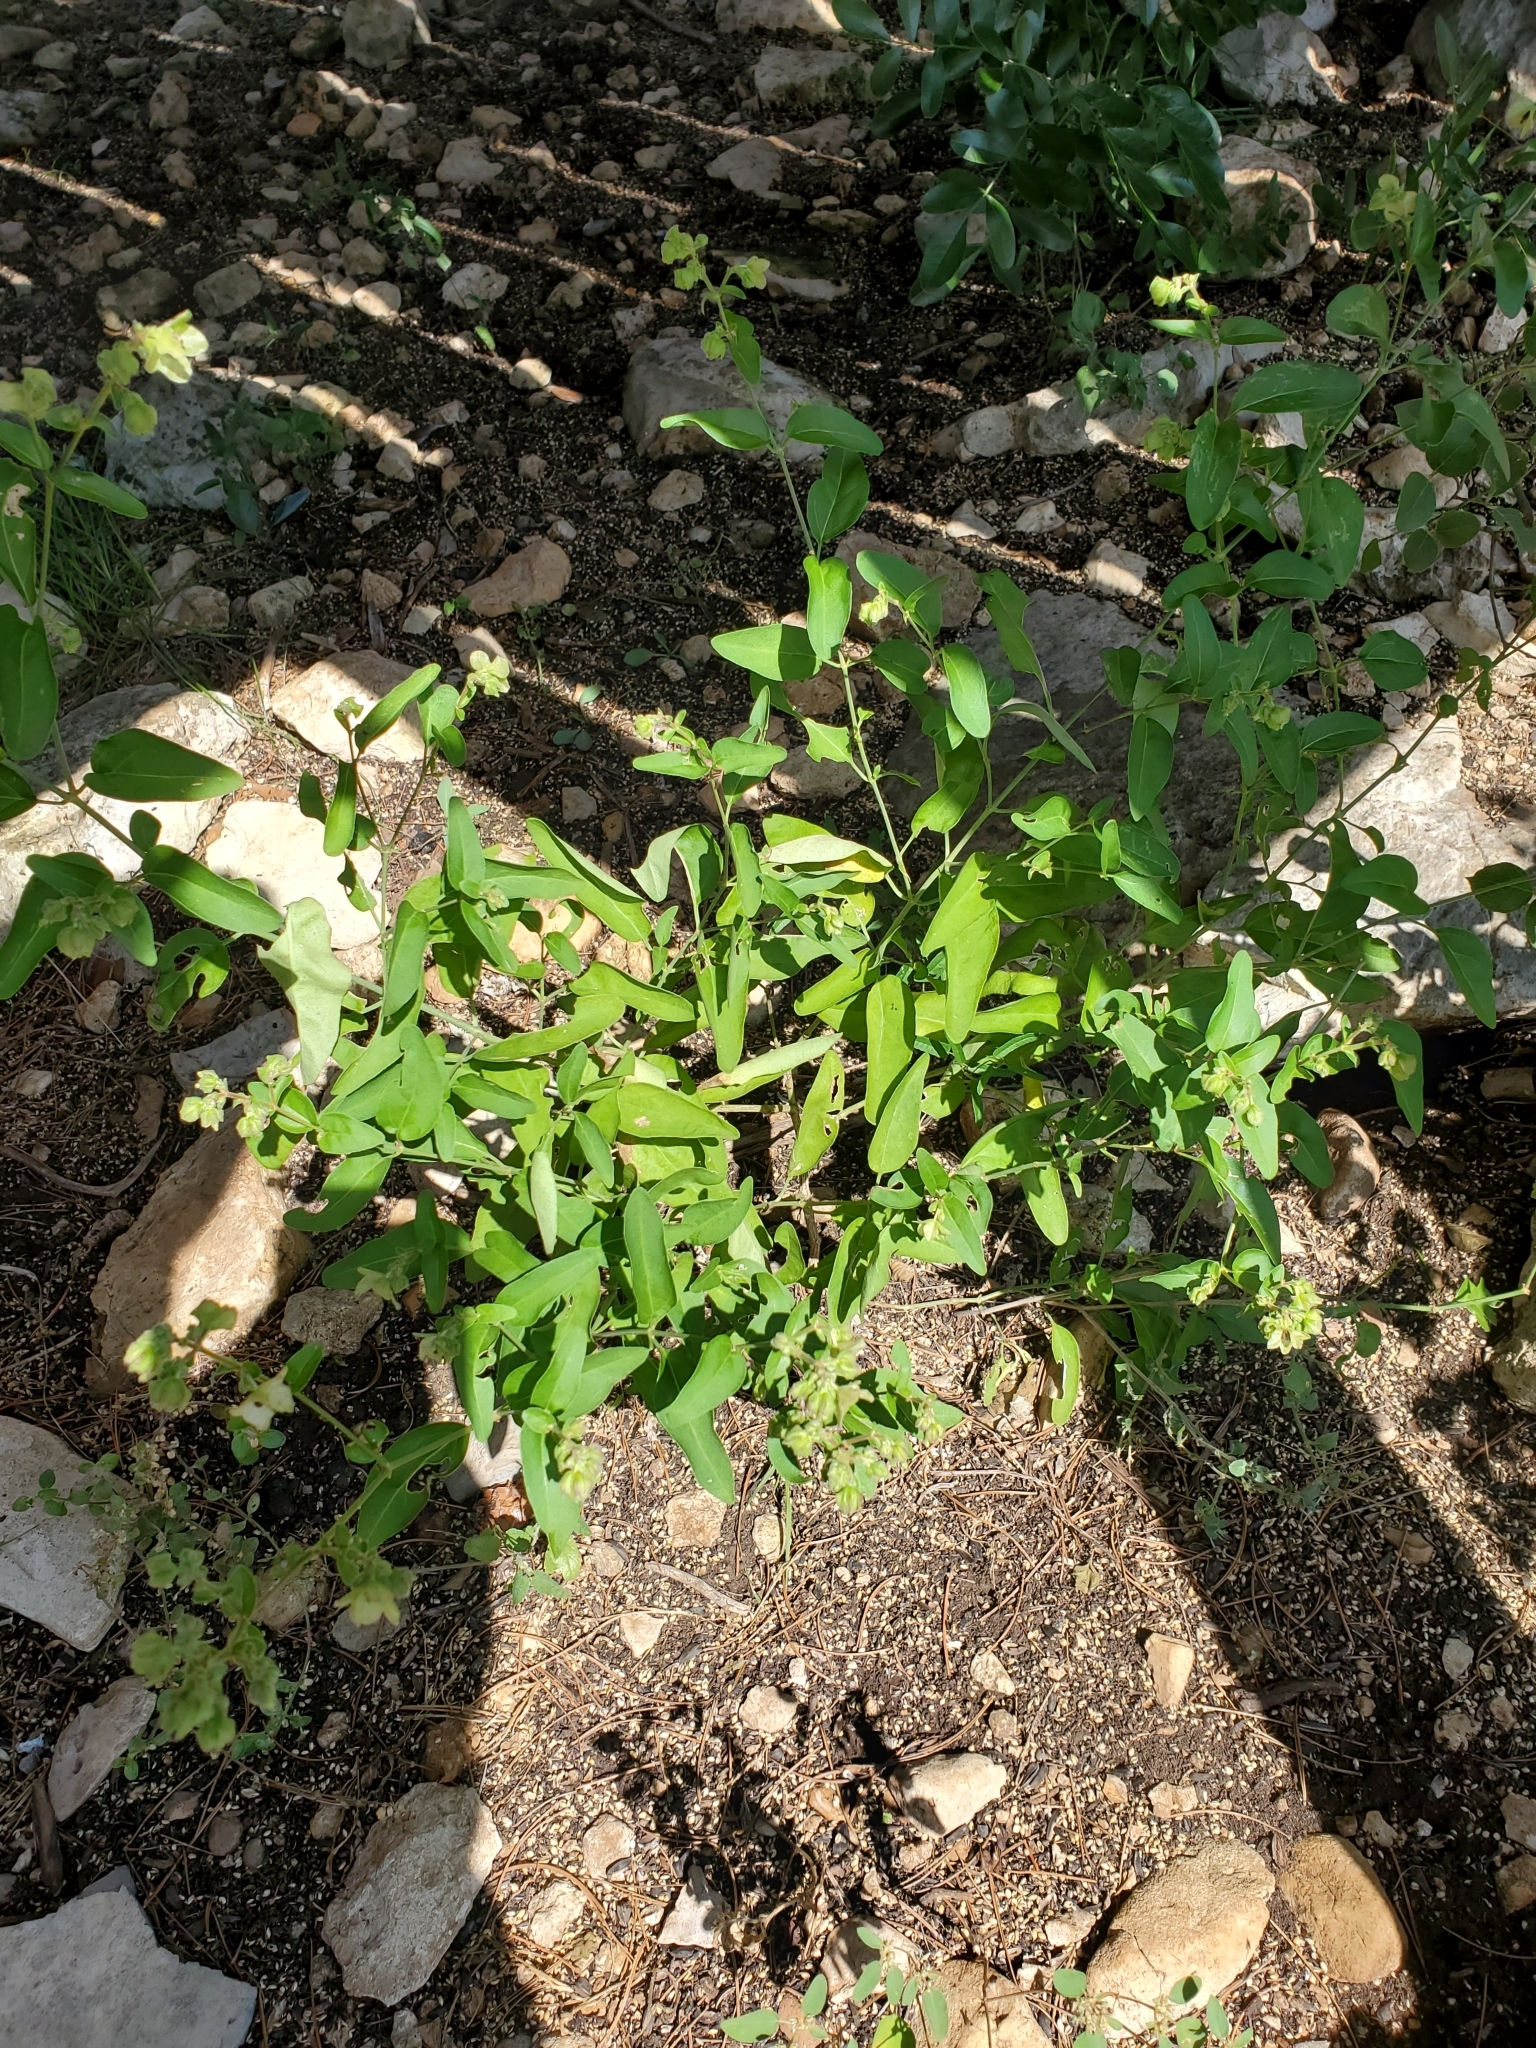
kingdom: Plantae
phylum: Tracheophyta
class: Magnoliopsida
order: Caryophyllales
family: Nyctaginaceae
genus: Mirabilis
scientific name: Mirabilis albida
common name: Hairy four-o'clock
